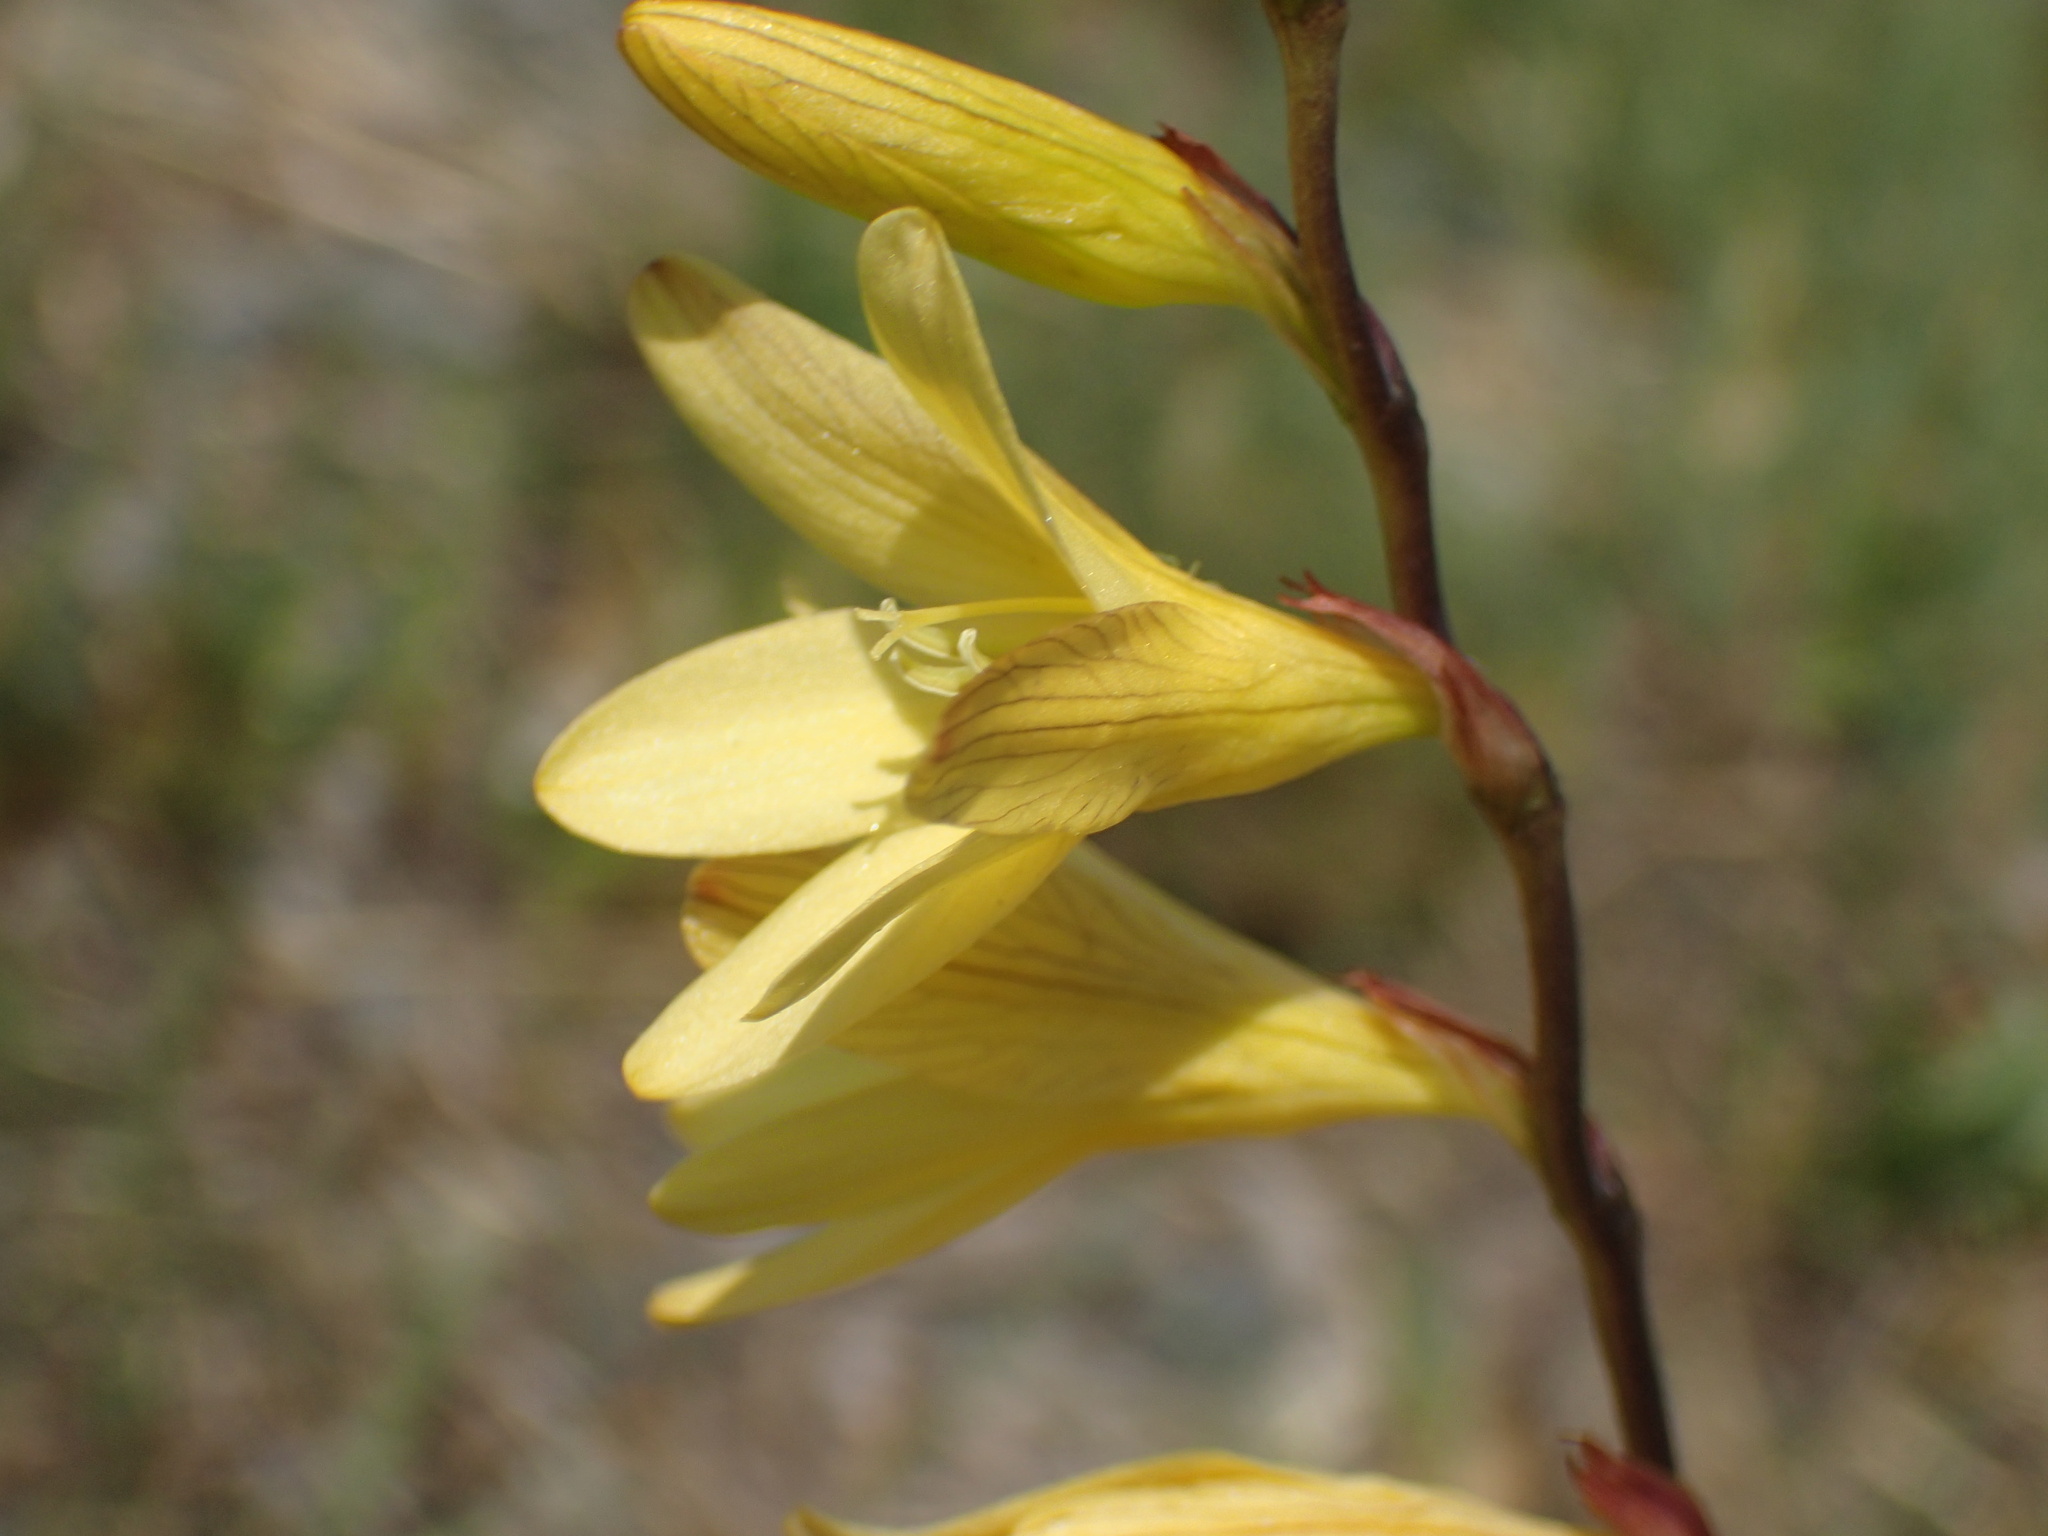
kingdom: Plantae
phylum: Tracheophyta
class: Liliopsida
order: Asparagales
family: Iridaceae
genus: Tritonia
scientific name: Tritonia gladiolaris
